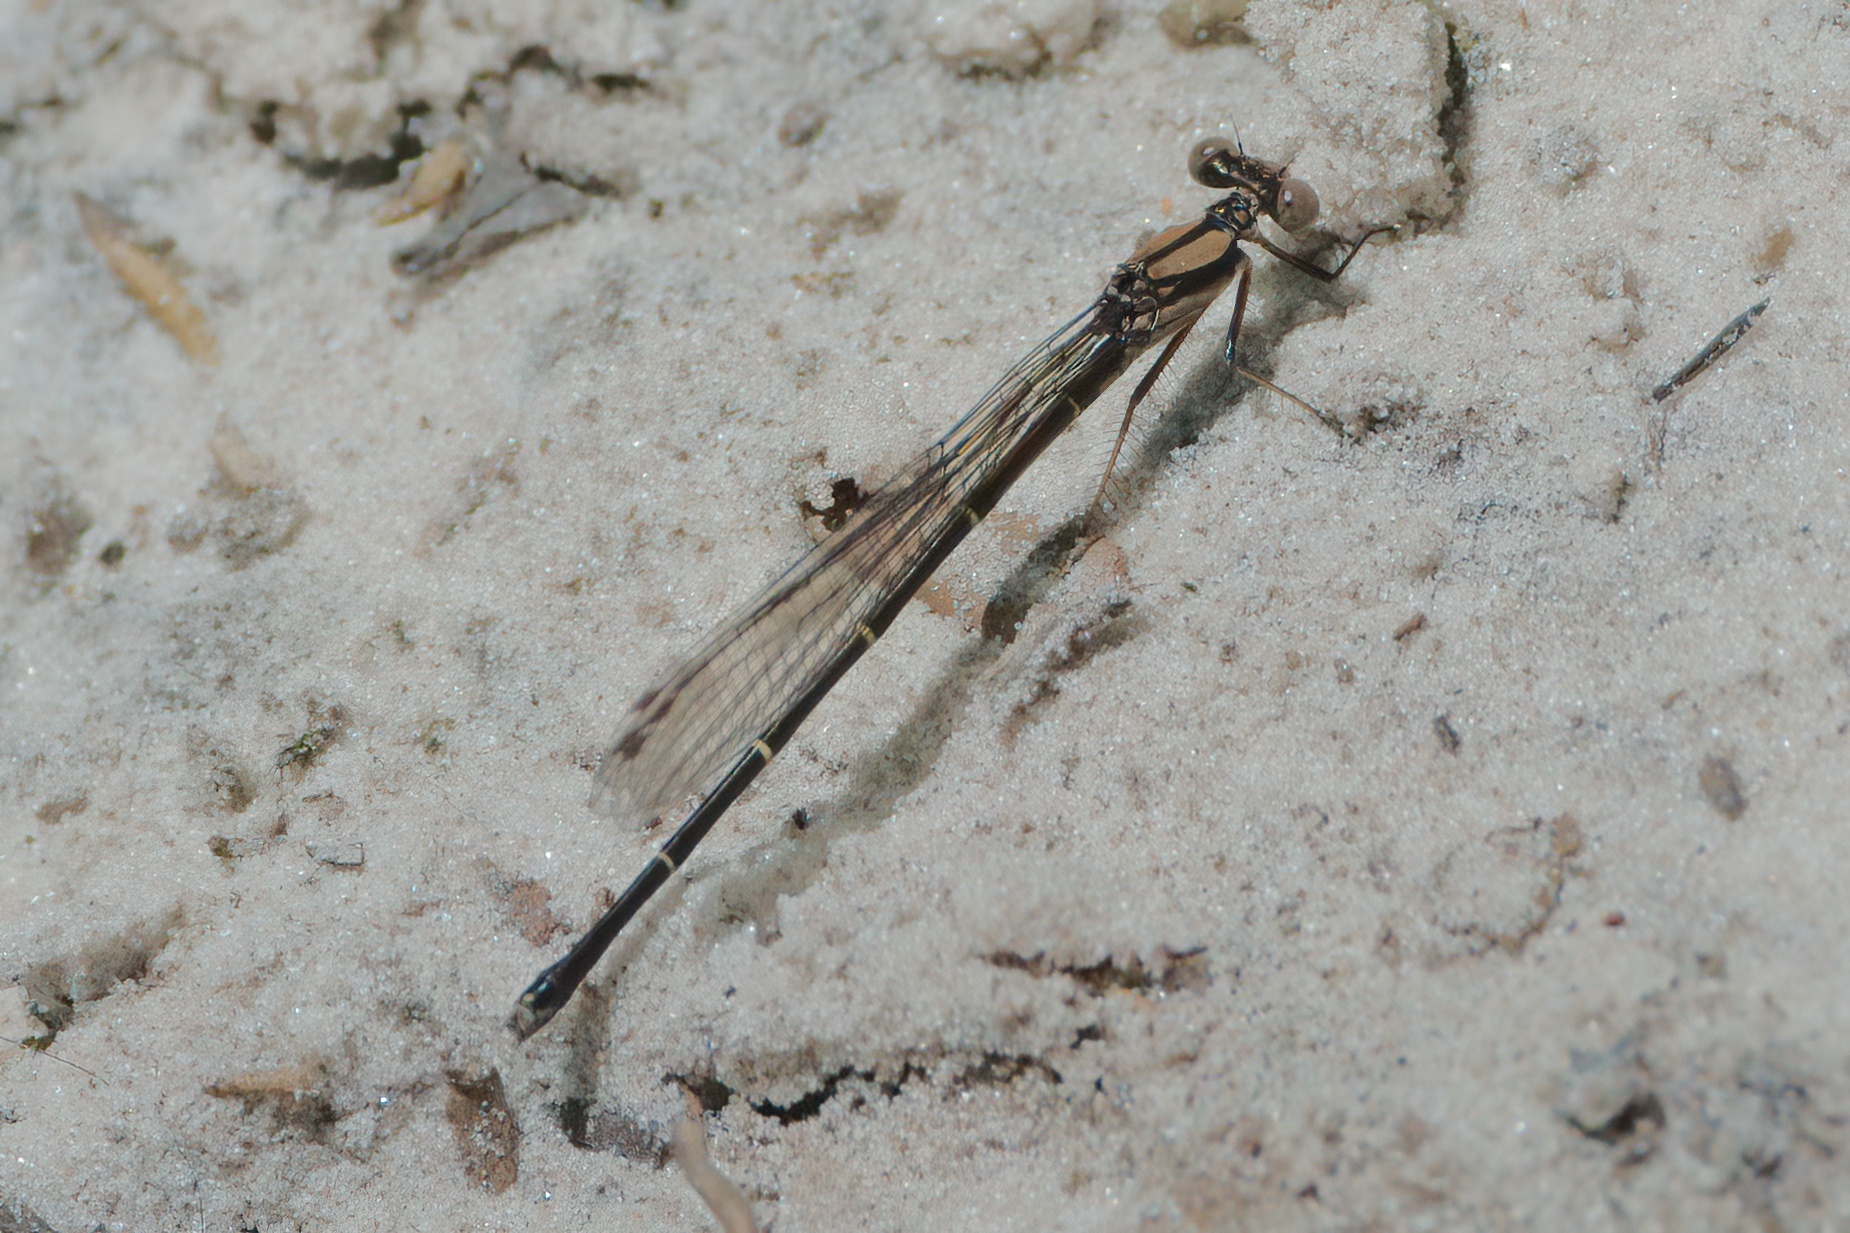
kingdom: Animalia
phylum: Arthropoda
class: Insecta
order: Odonata
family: Coenagrionidae
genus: Argia
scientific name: Argia tibialis
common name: Blue-tipped dancer
